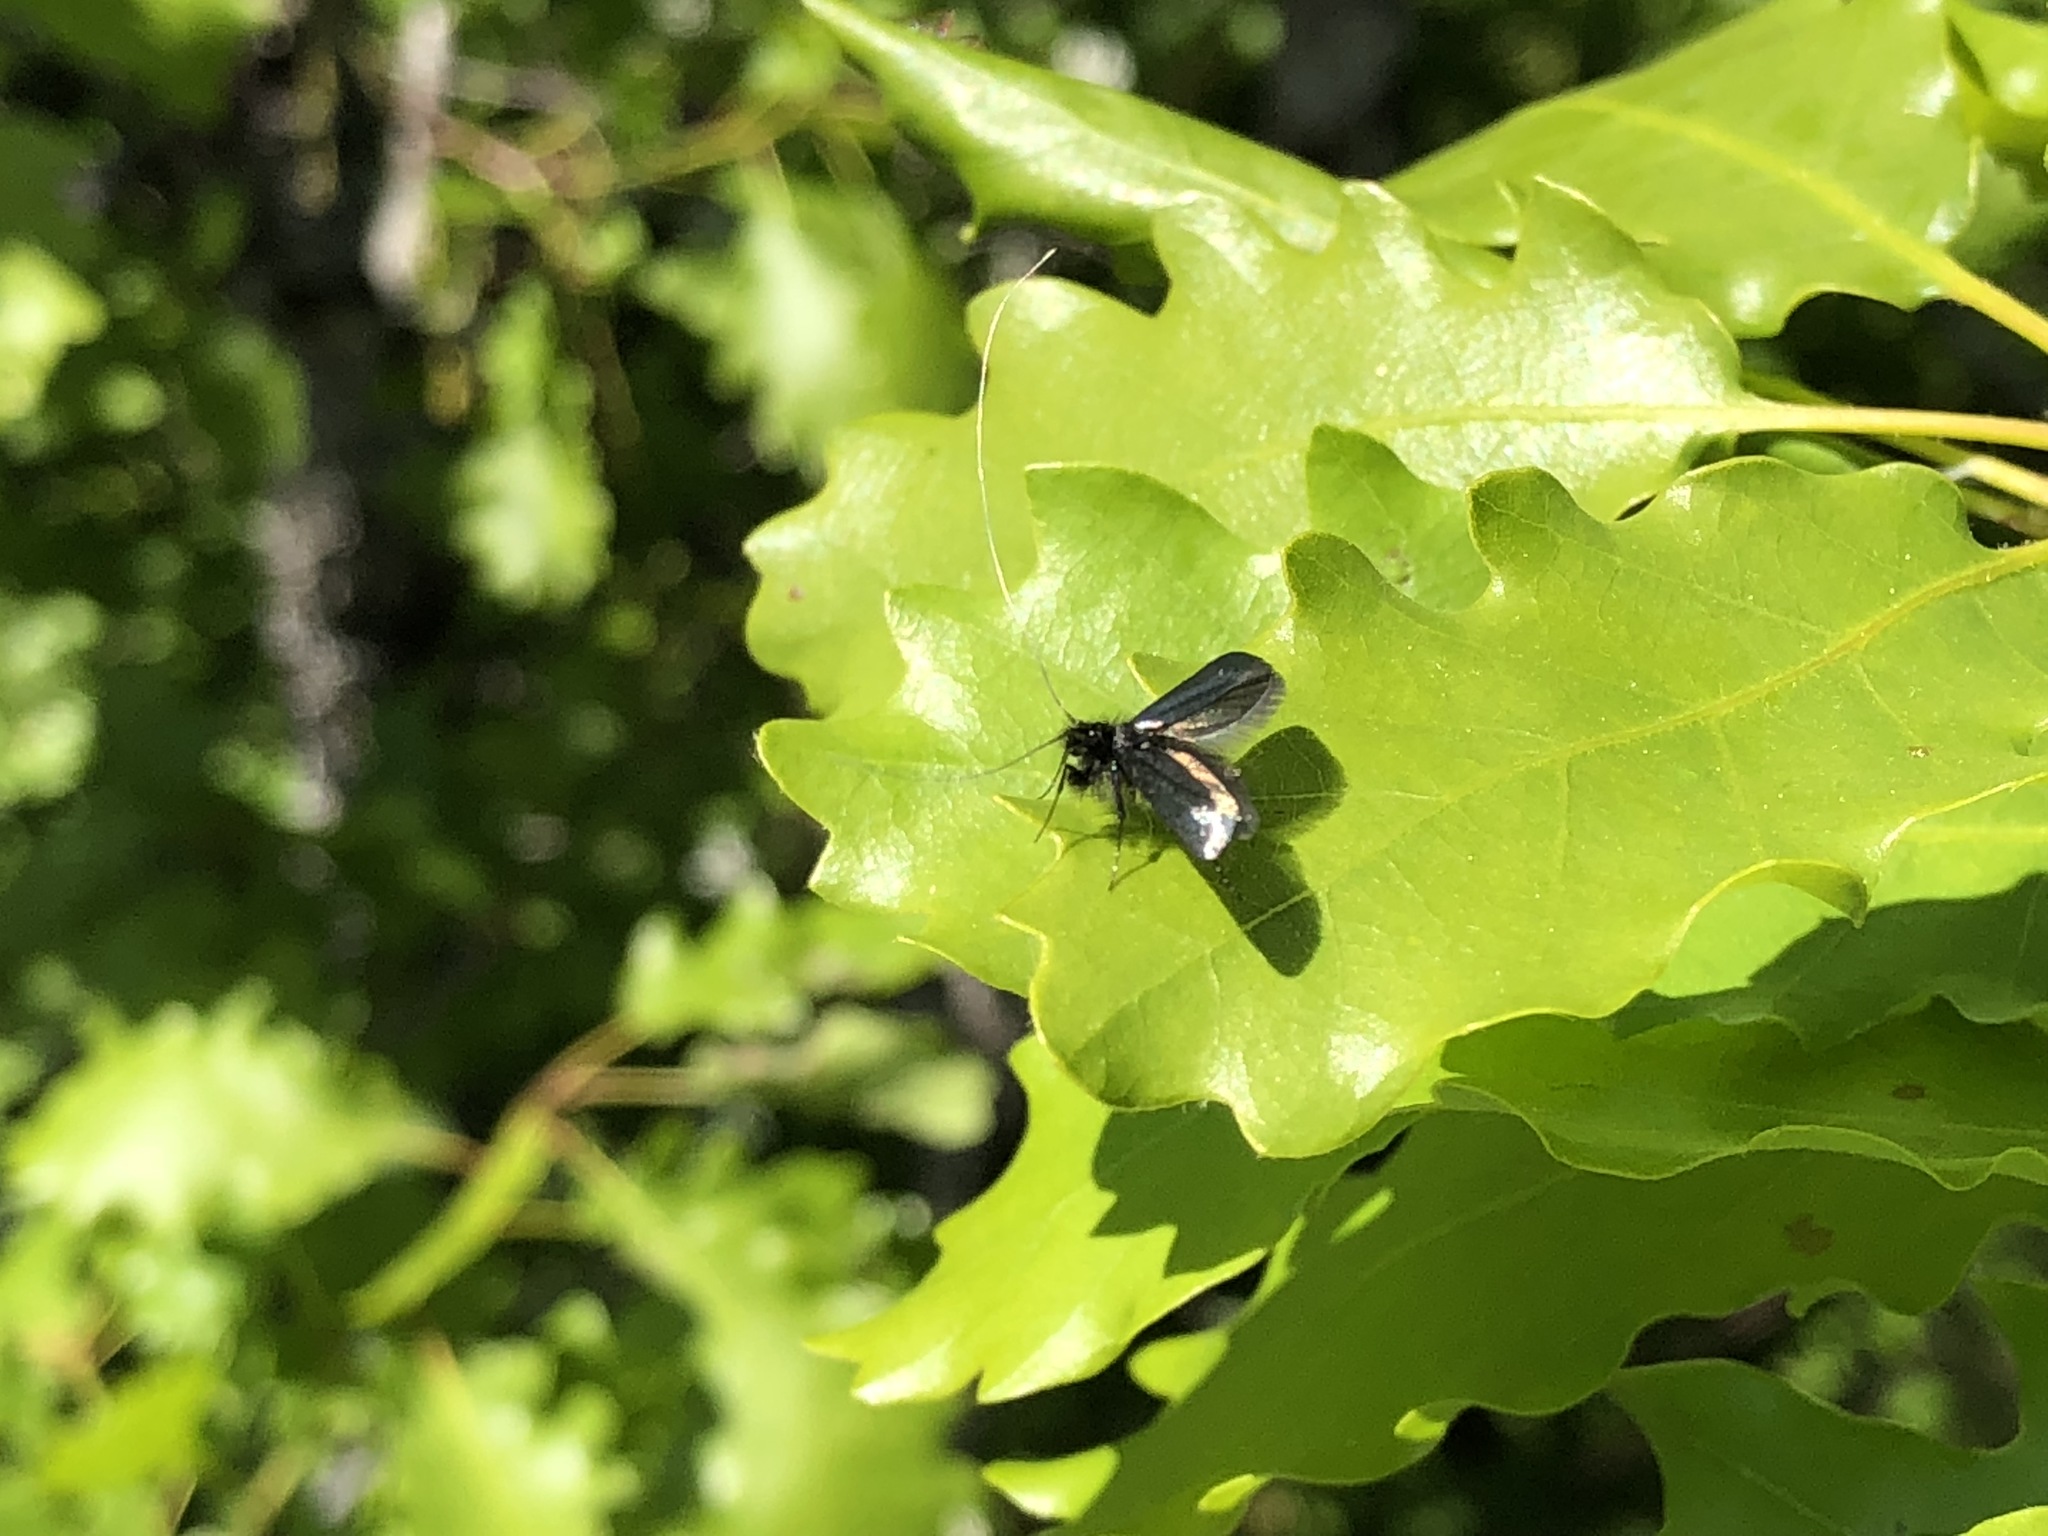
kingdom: Animalia
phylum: Arthropoda
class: Insecta
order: Lepidoptera
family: Adelidae
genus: Adela
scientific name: Adela viridella
